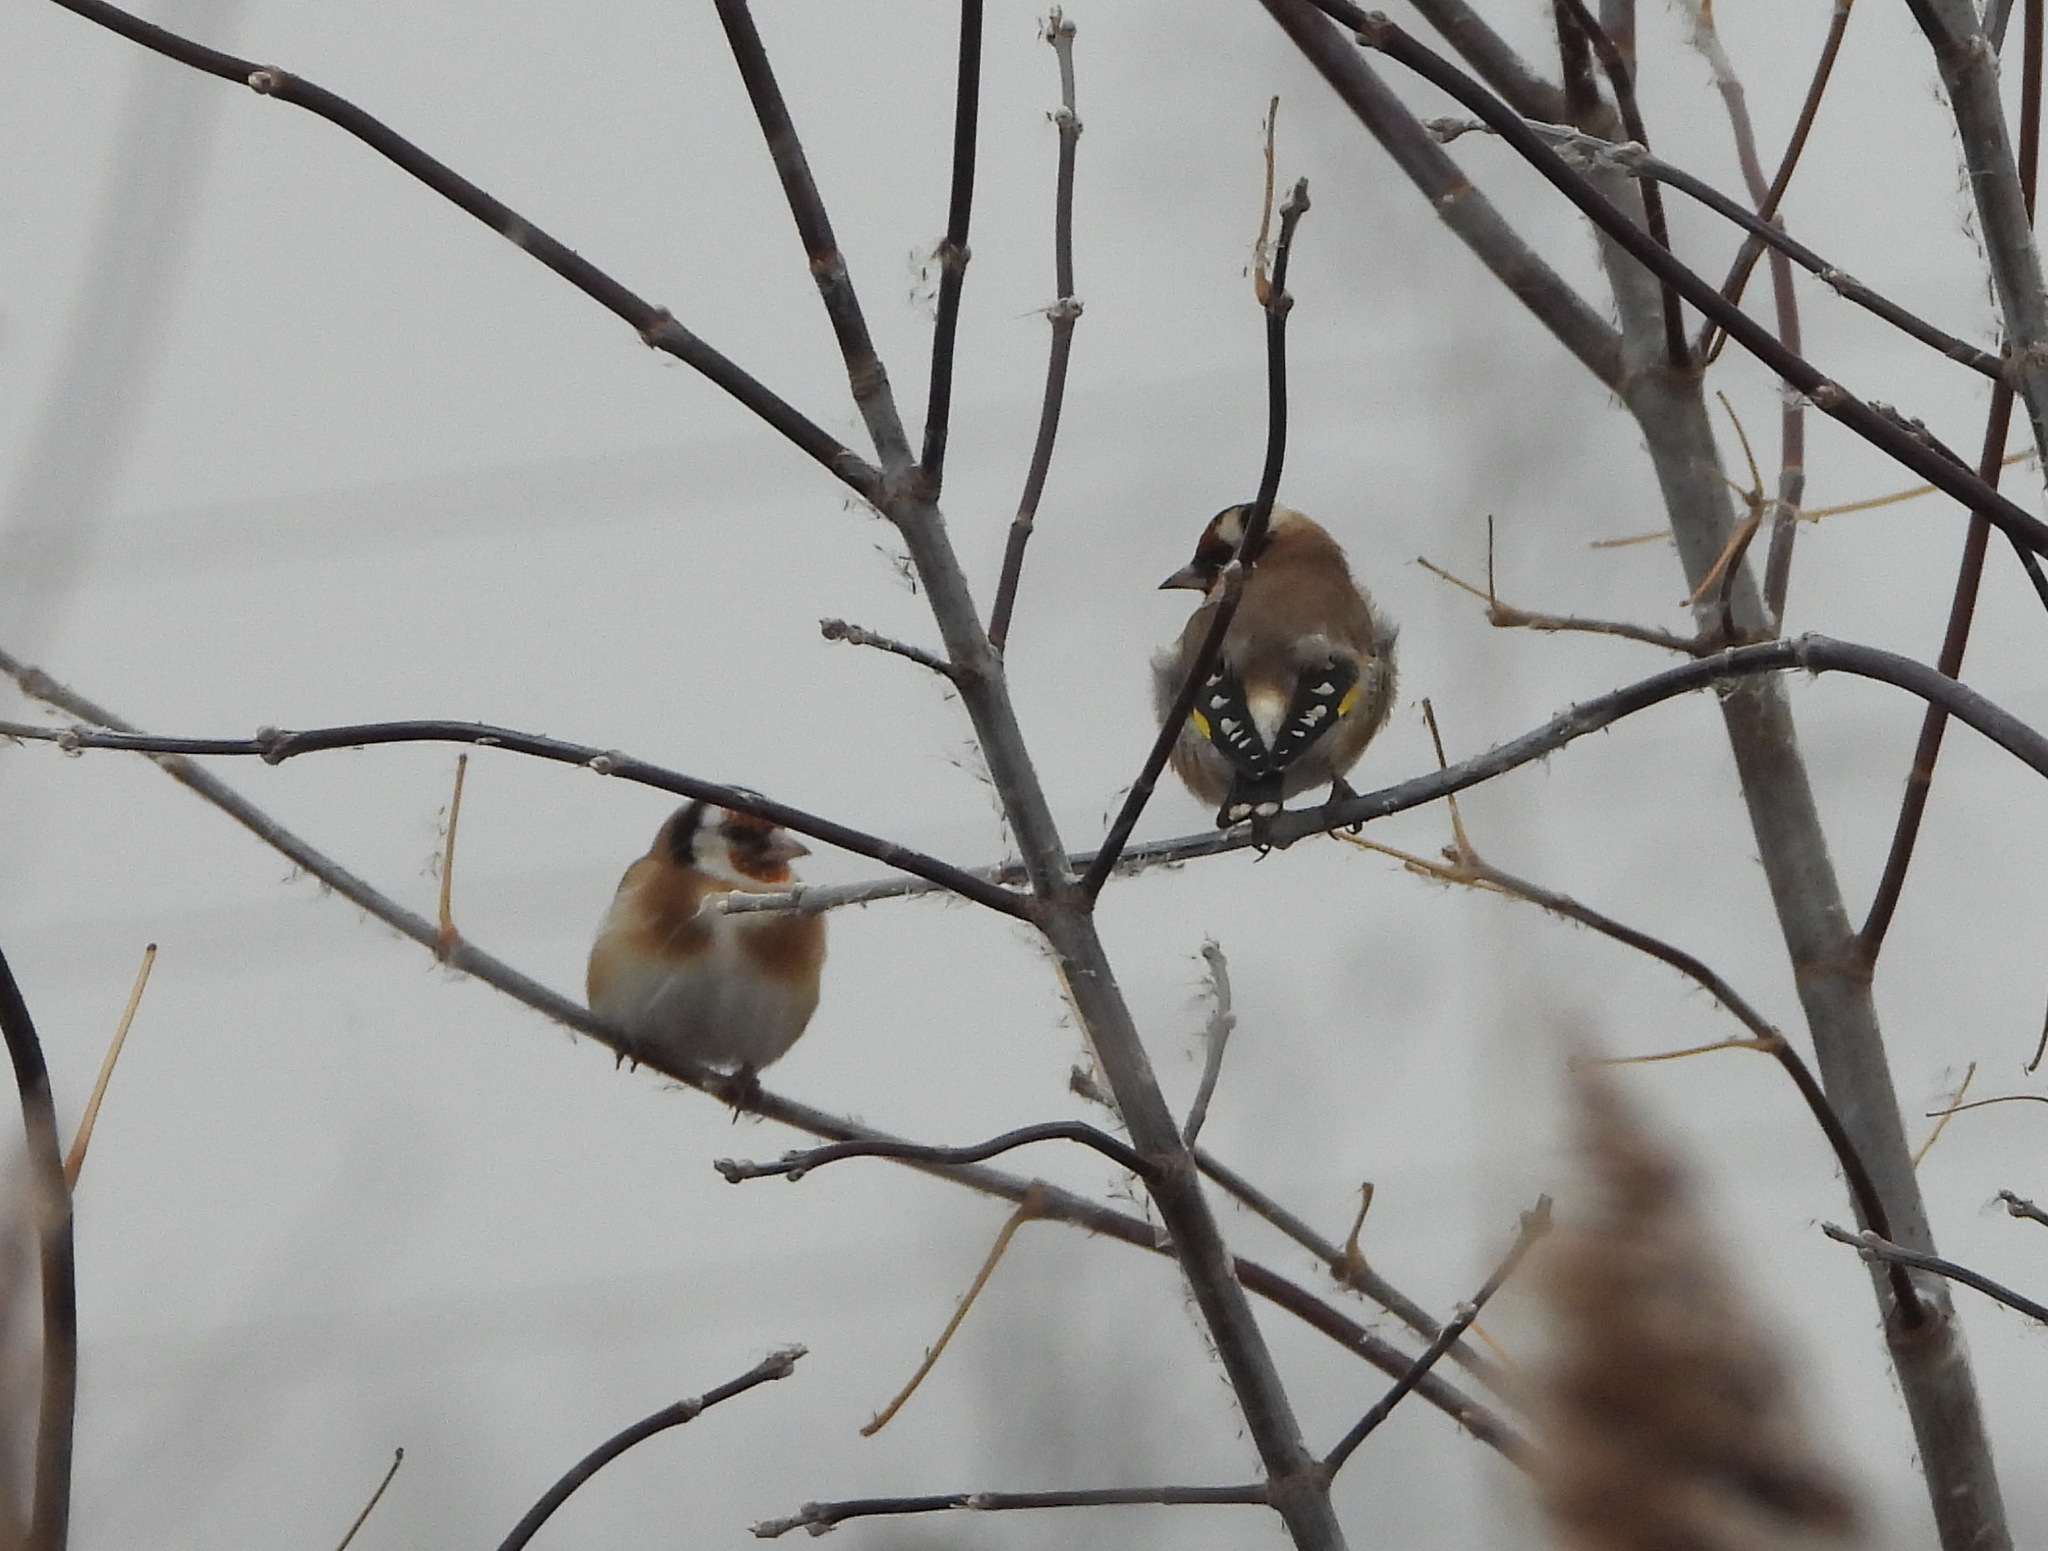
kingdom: Animalia
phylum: Chordata
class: Aves
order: Passeriformes
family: Fringillidae
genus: Carduelis
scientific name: Carduelis carduelis
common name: European goldfinch
